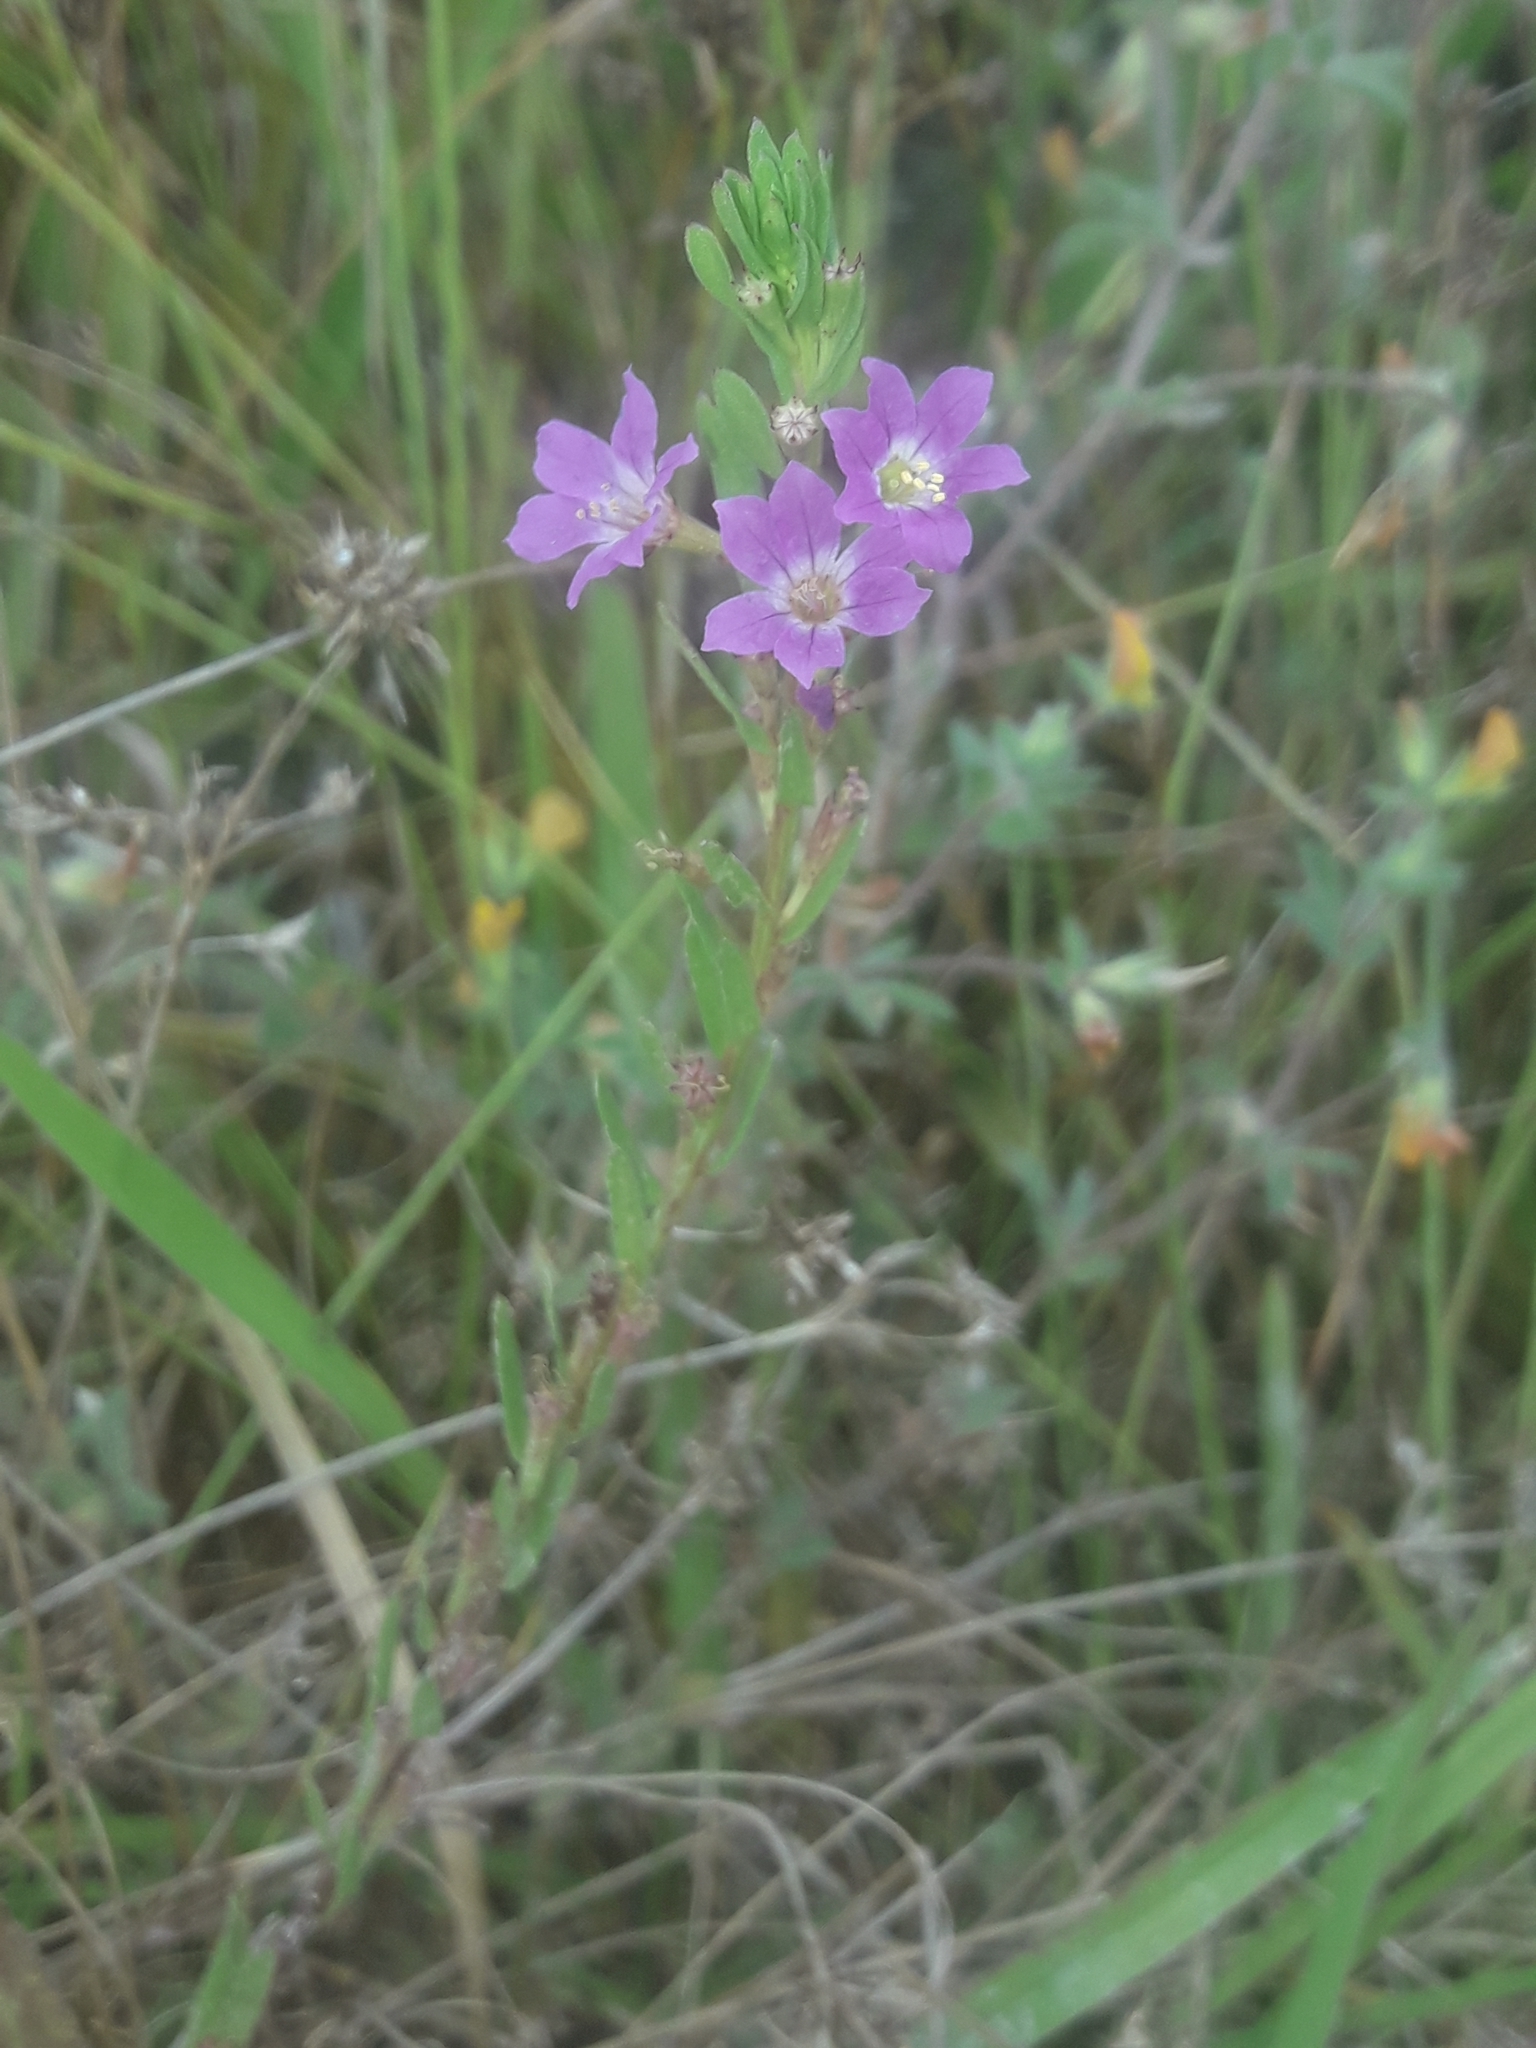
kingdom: Plantae
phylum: Tracheophyta
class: Magnoliopsida
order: Myrtales
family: Lythraceae
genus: Lythrum
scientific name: Lythrum junceum
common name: False grass-poly
